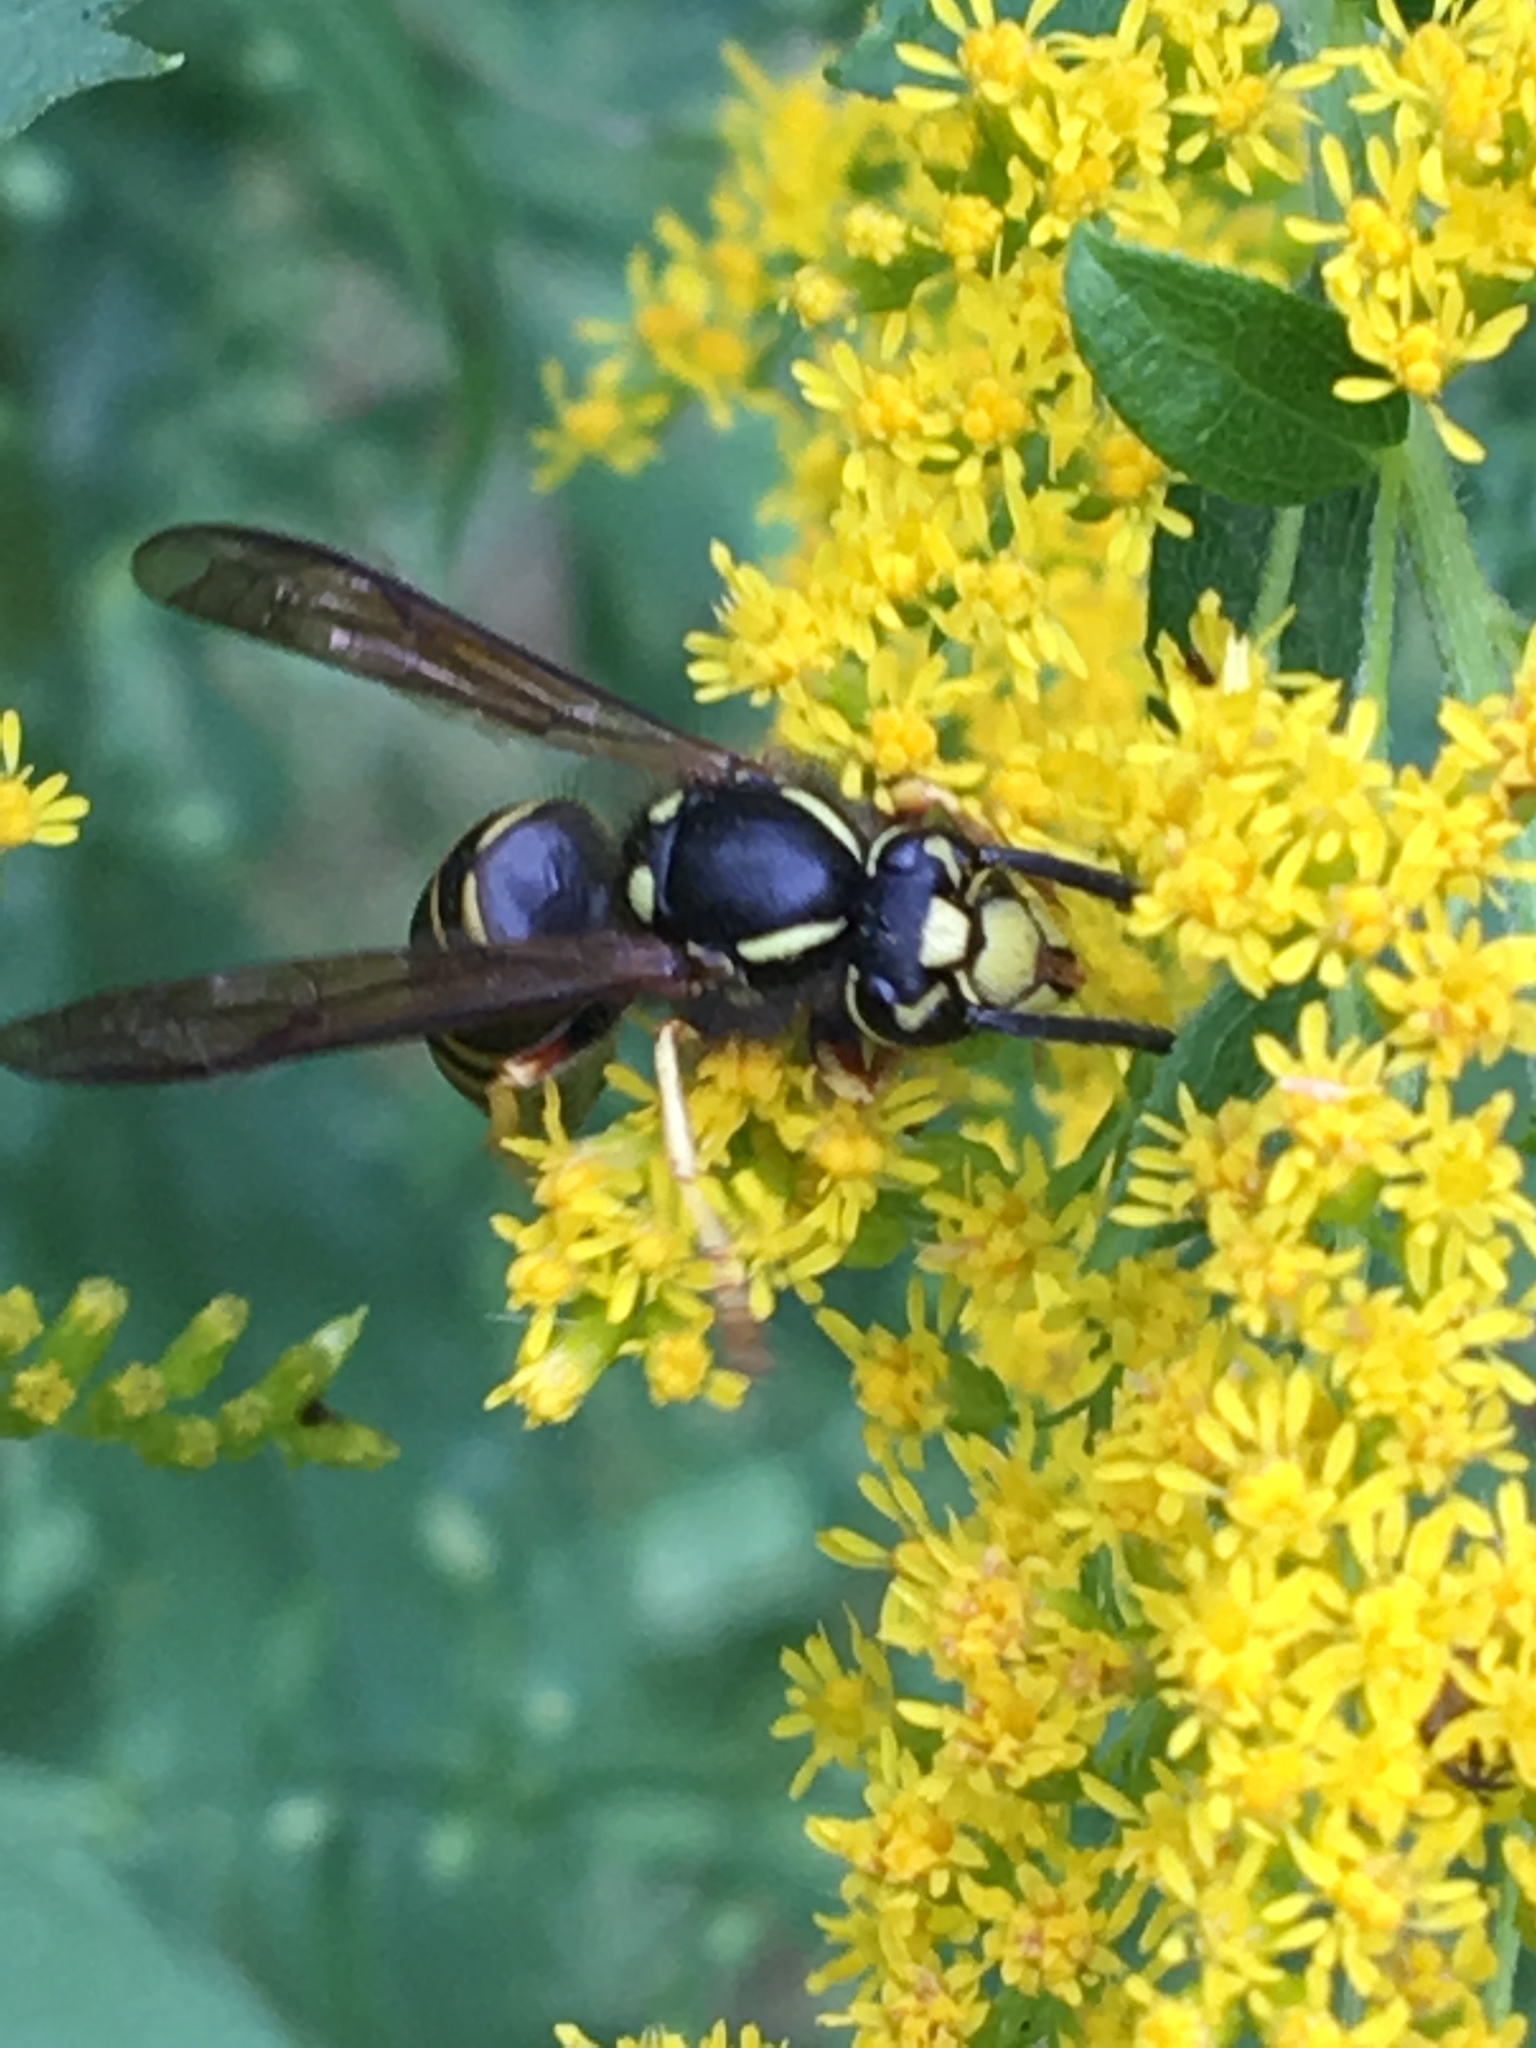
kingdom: Animalia
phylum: Arthropoda
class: Insecta
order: Hymenoptera
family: Vespidae
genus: Vespula
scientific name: Vespula vidua
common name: Widow yellowjacket
